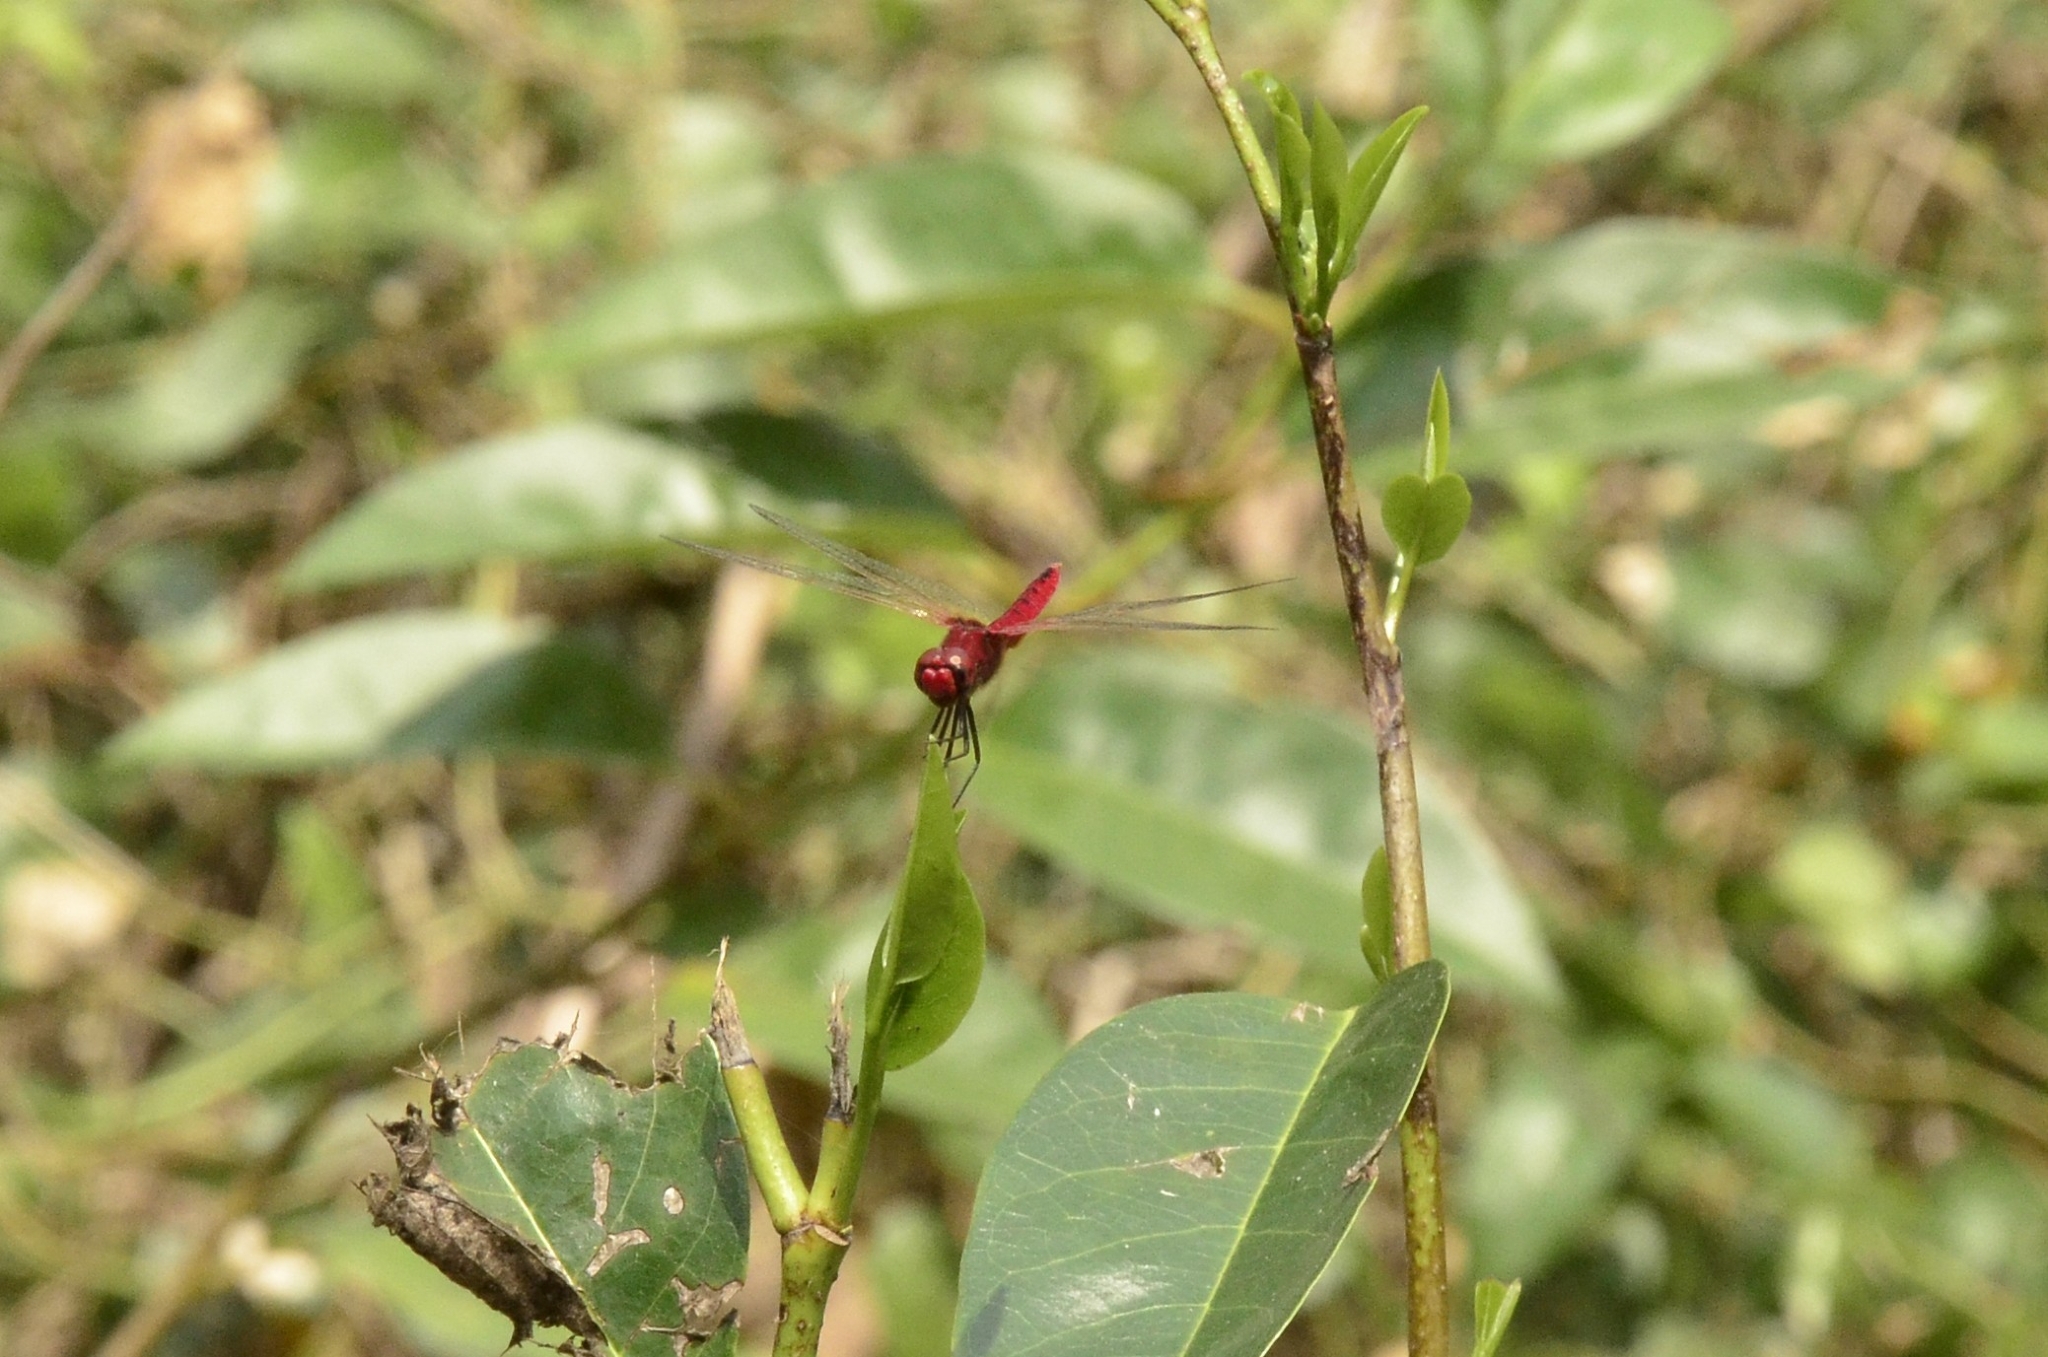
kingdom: Animalia
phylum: Arthropoda
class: Insecta
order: Odonata
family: Libellulidae
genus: Urothemis
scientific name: Urothemis signata
